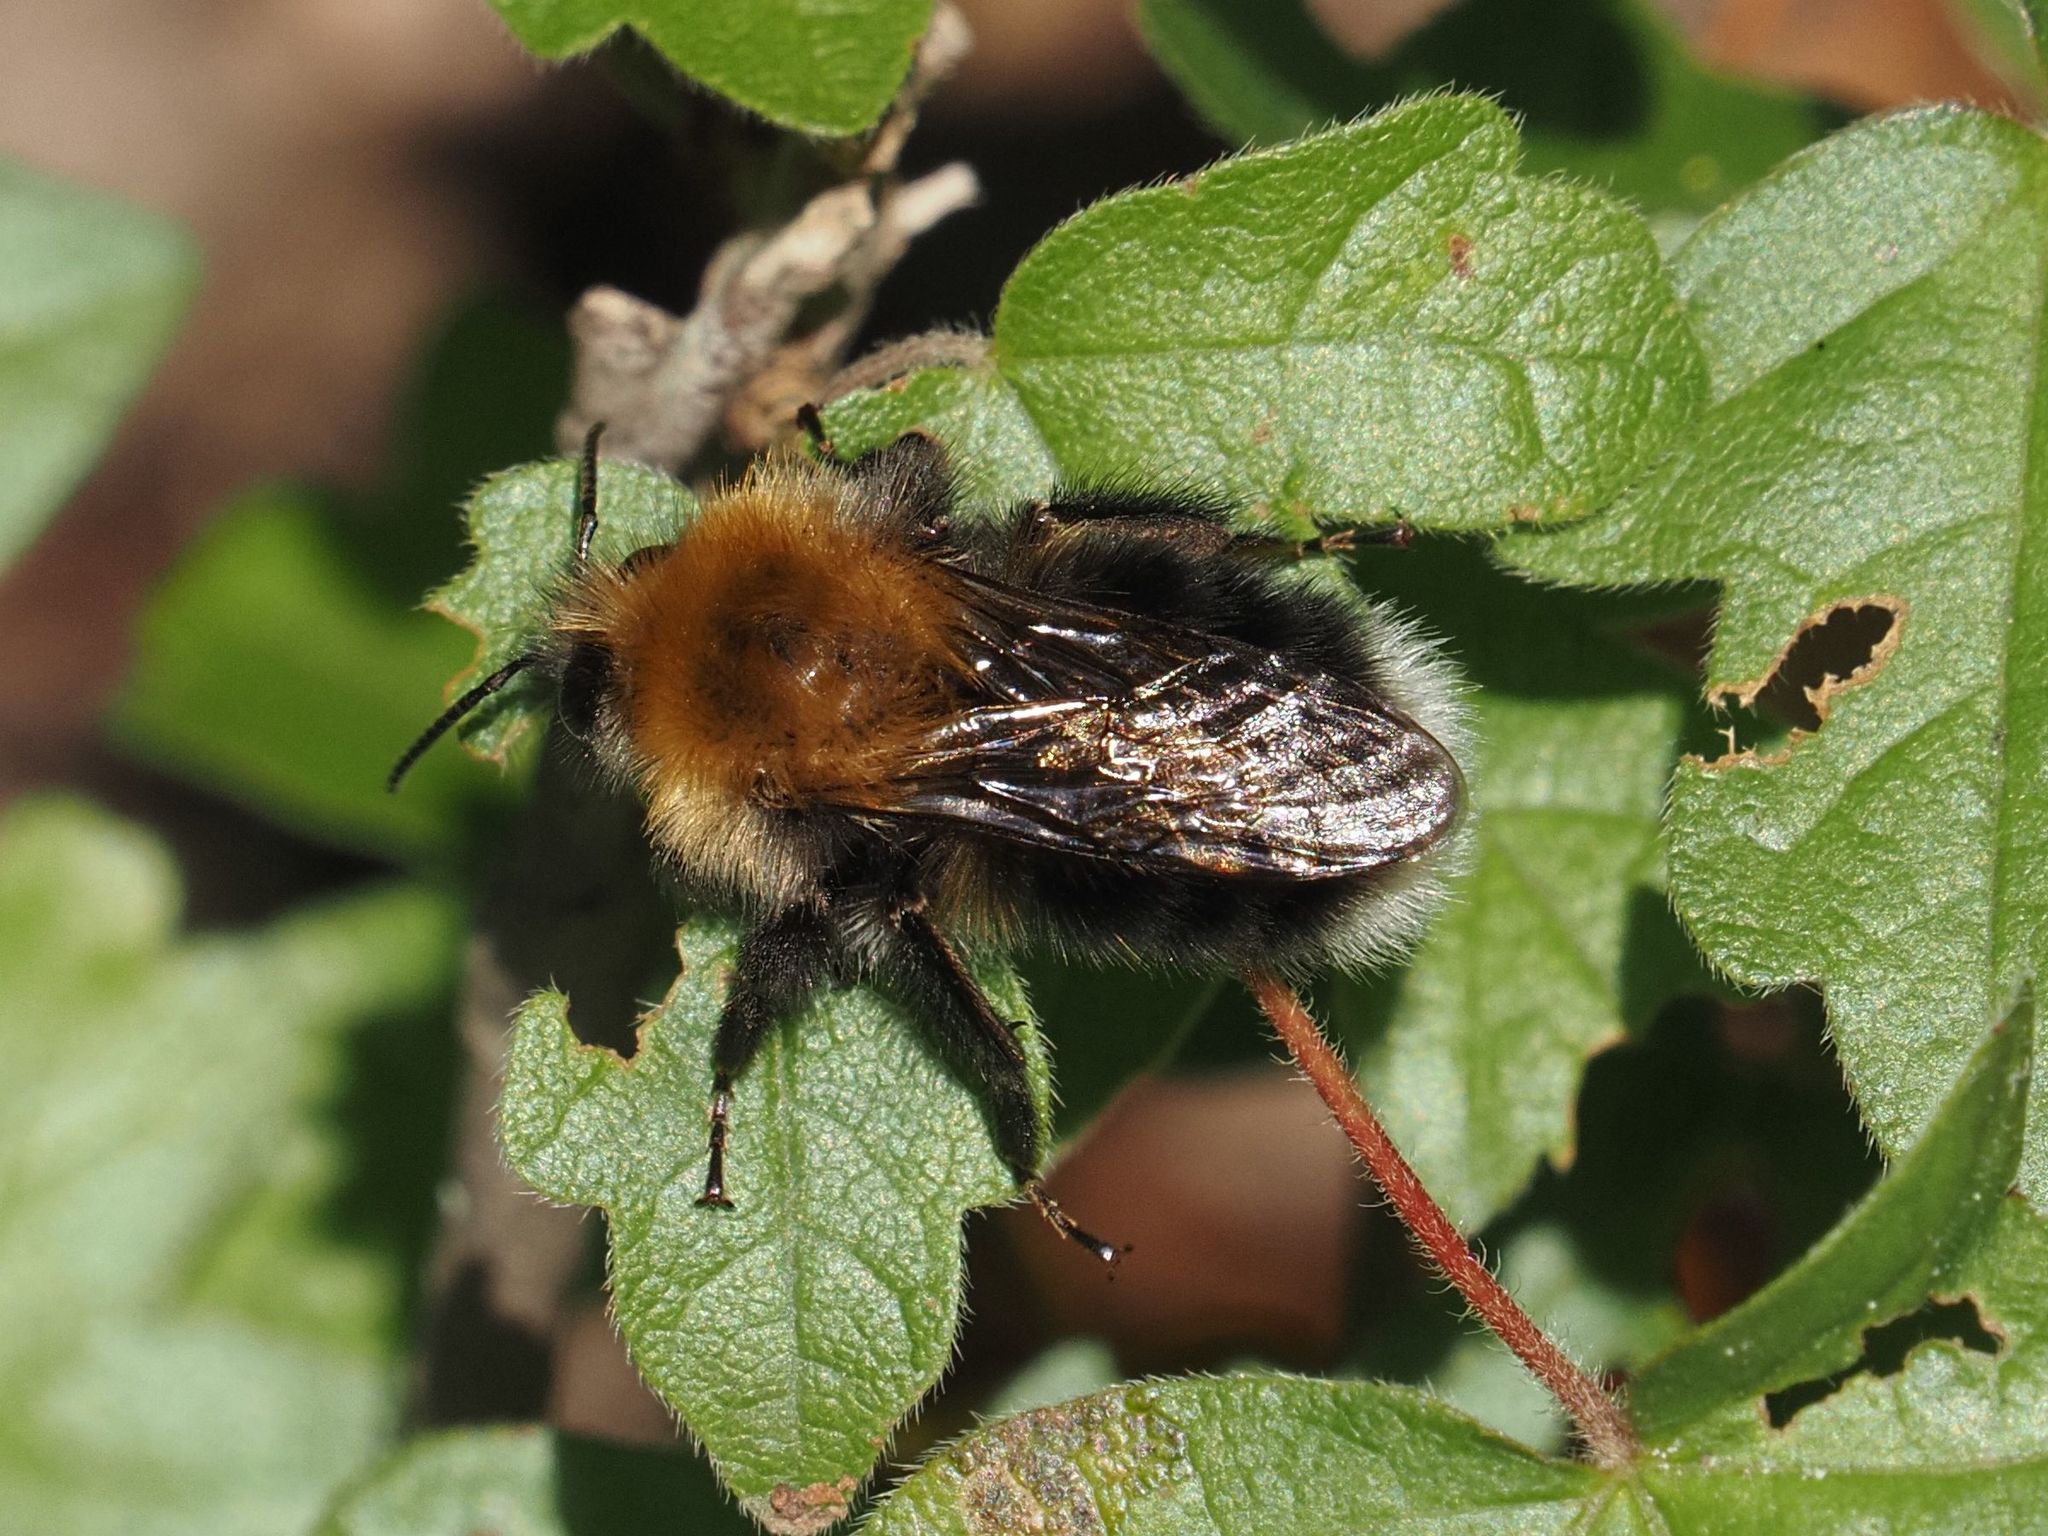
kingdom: Animalia
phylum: Arthropoda
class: Insecta
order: Hymenoptera
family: Apidae
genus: Bombus
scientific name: Bombus hypnorum
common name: New garden bumblebee
